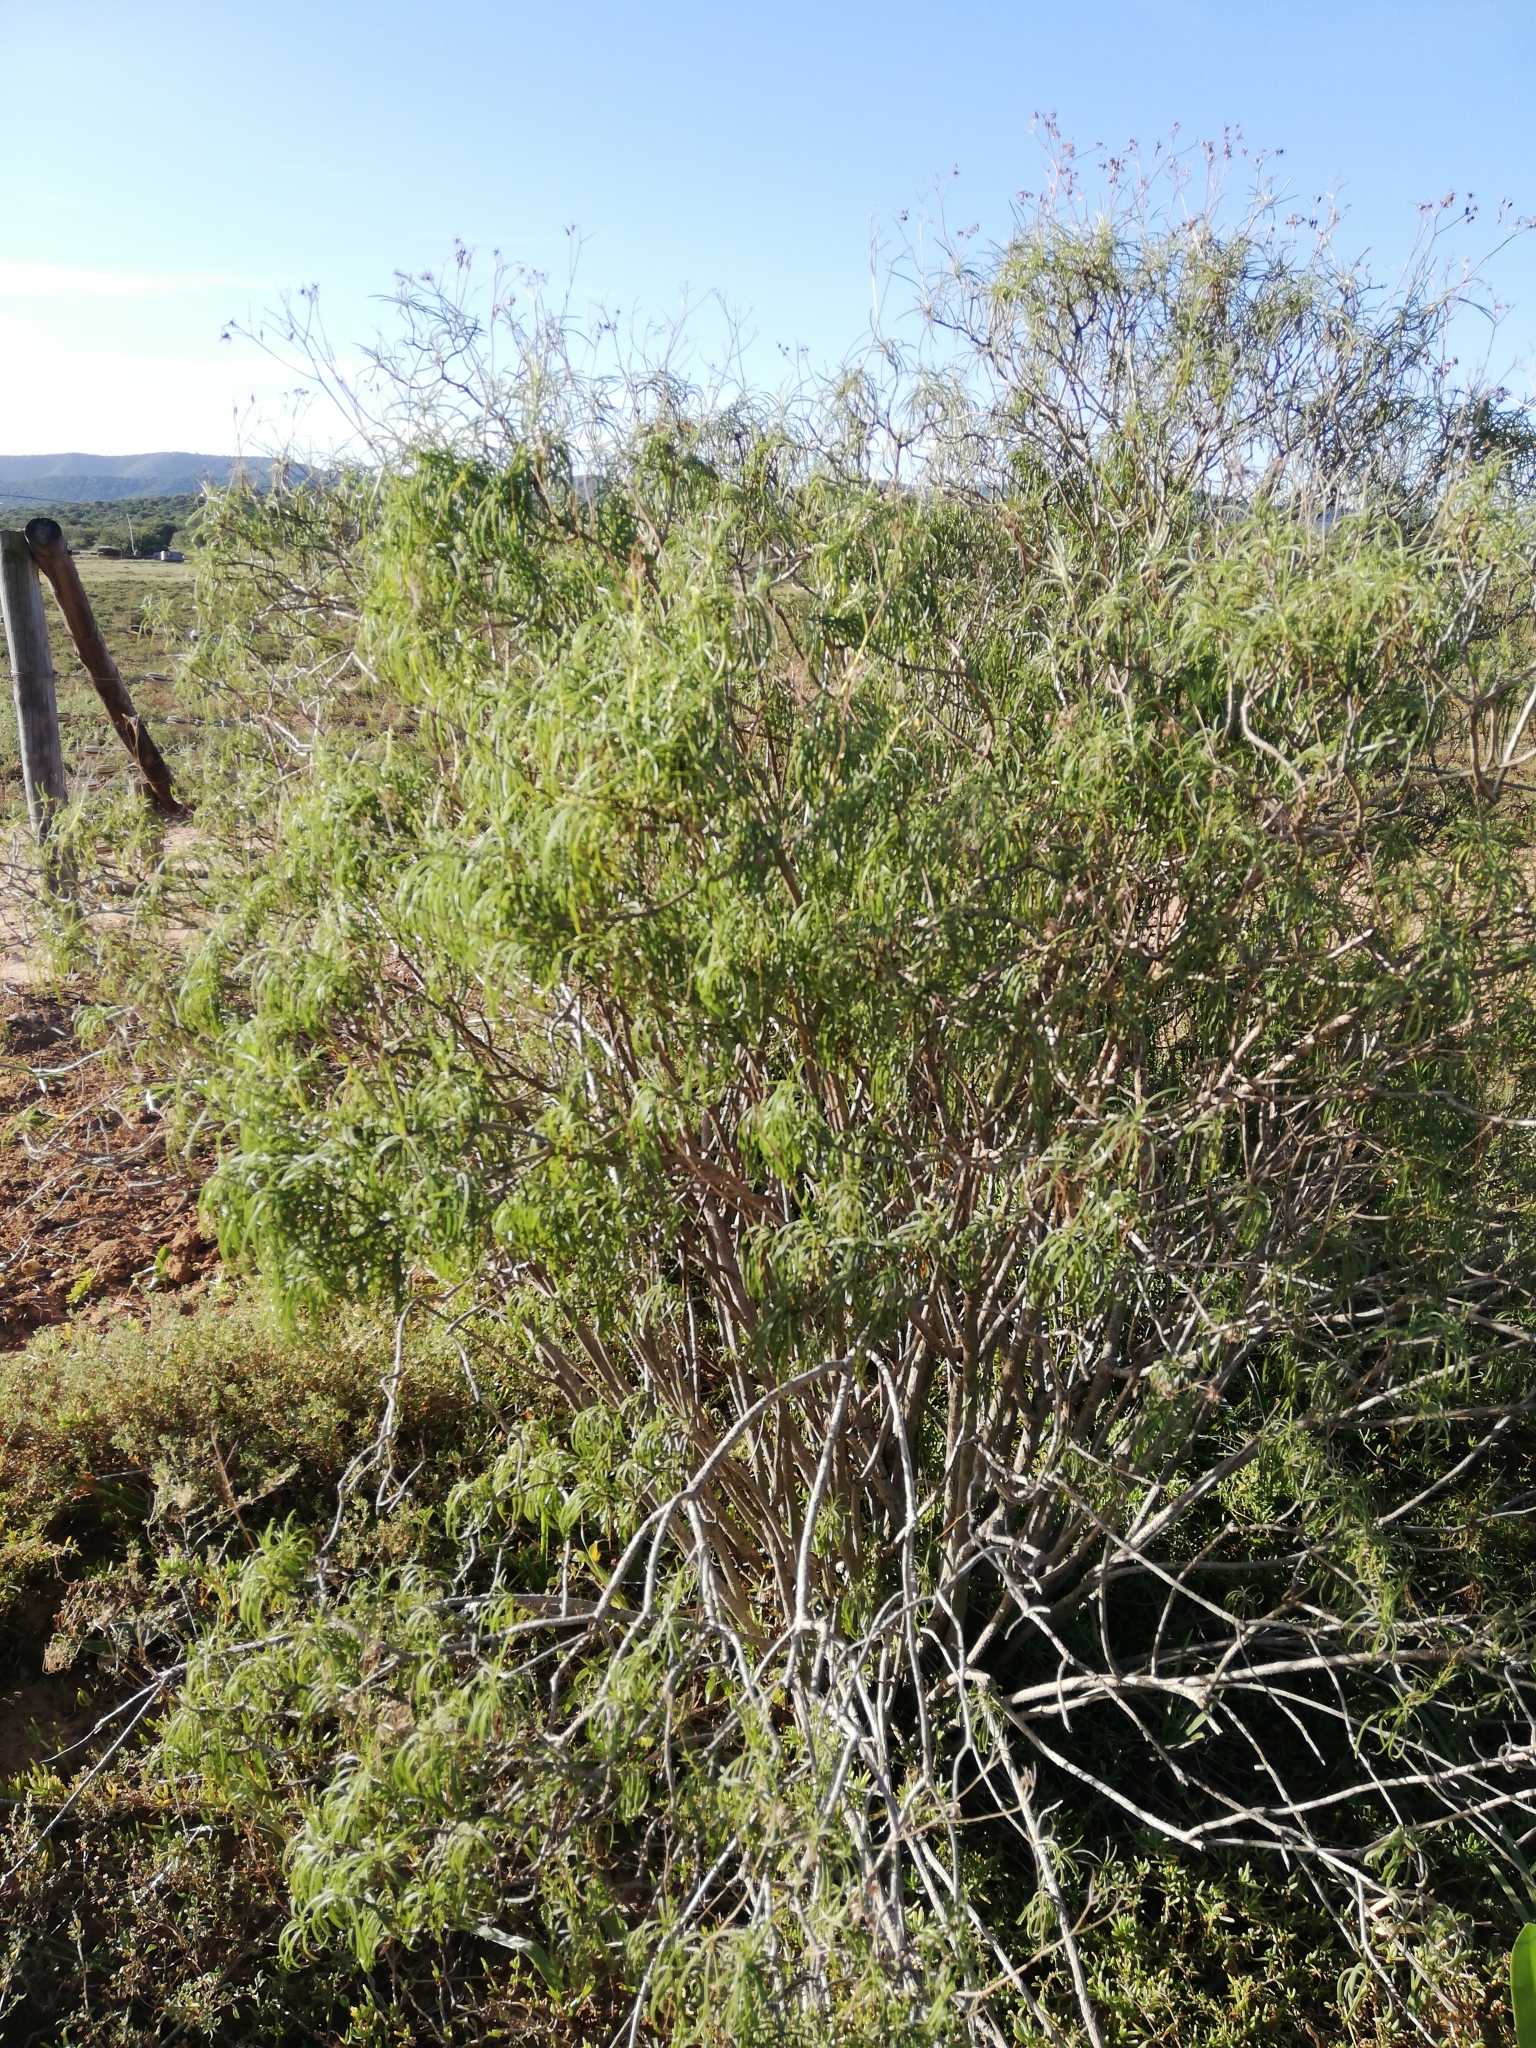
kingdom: Plantae
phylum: Tracheophyta
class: Magnoliopsida
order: Asterales
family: Asteraceae
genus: Senecio
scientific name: Senecio linifolius
